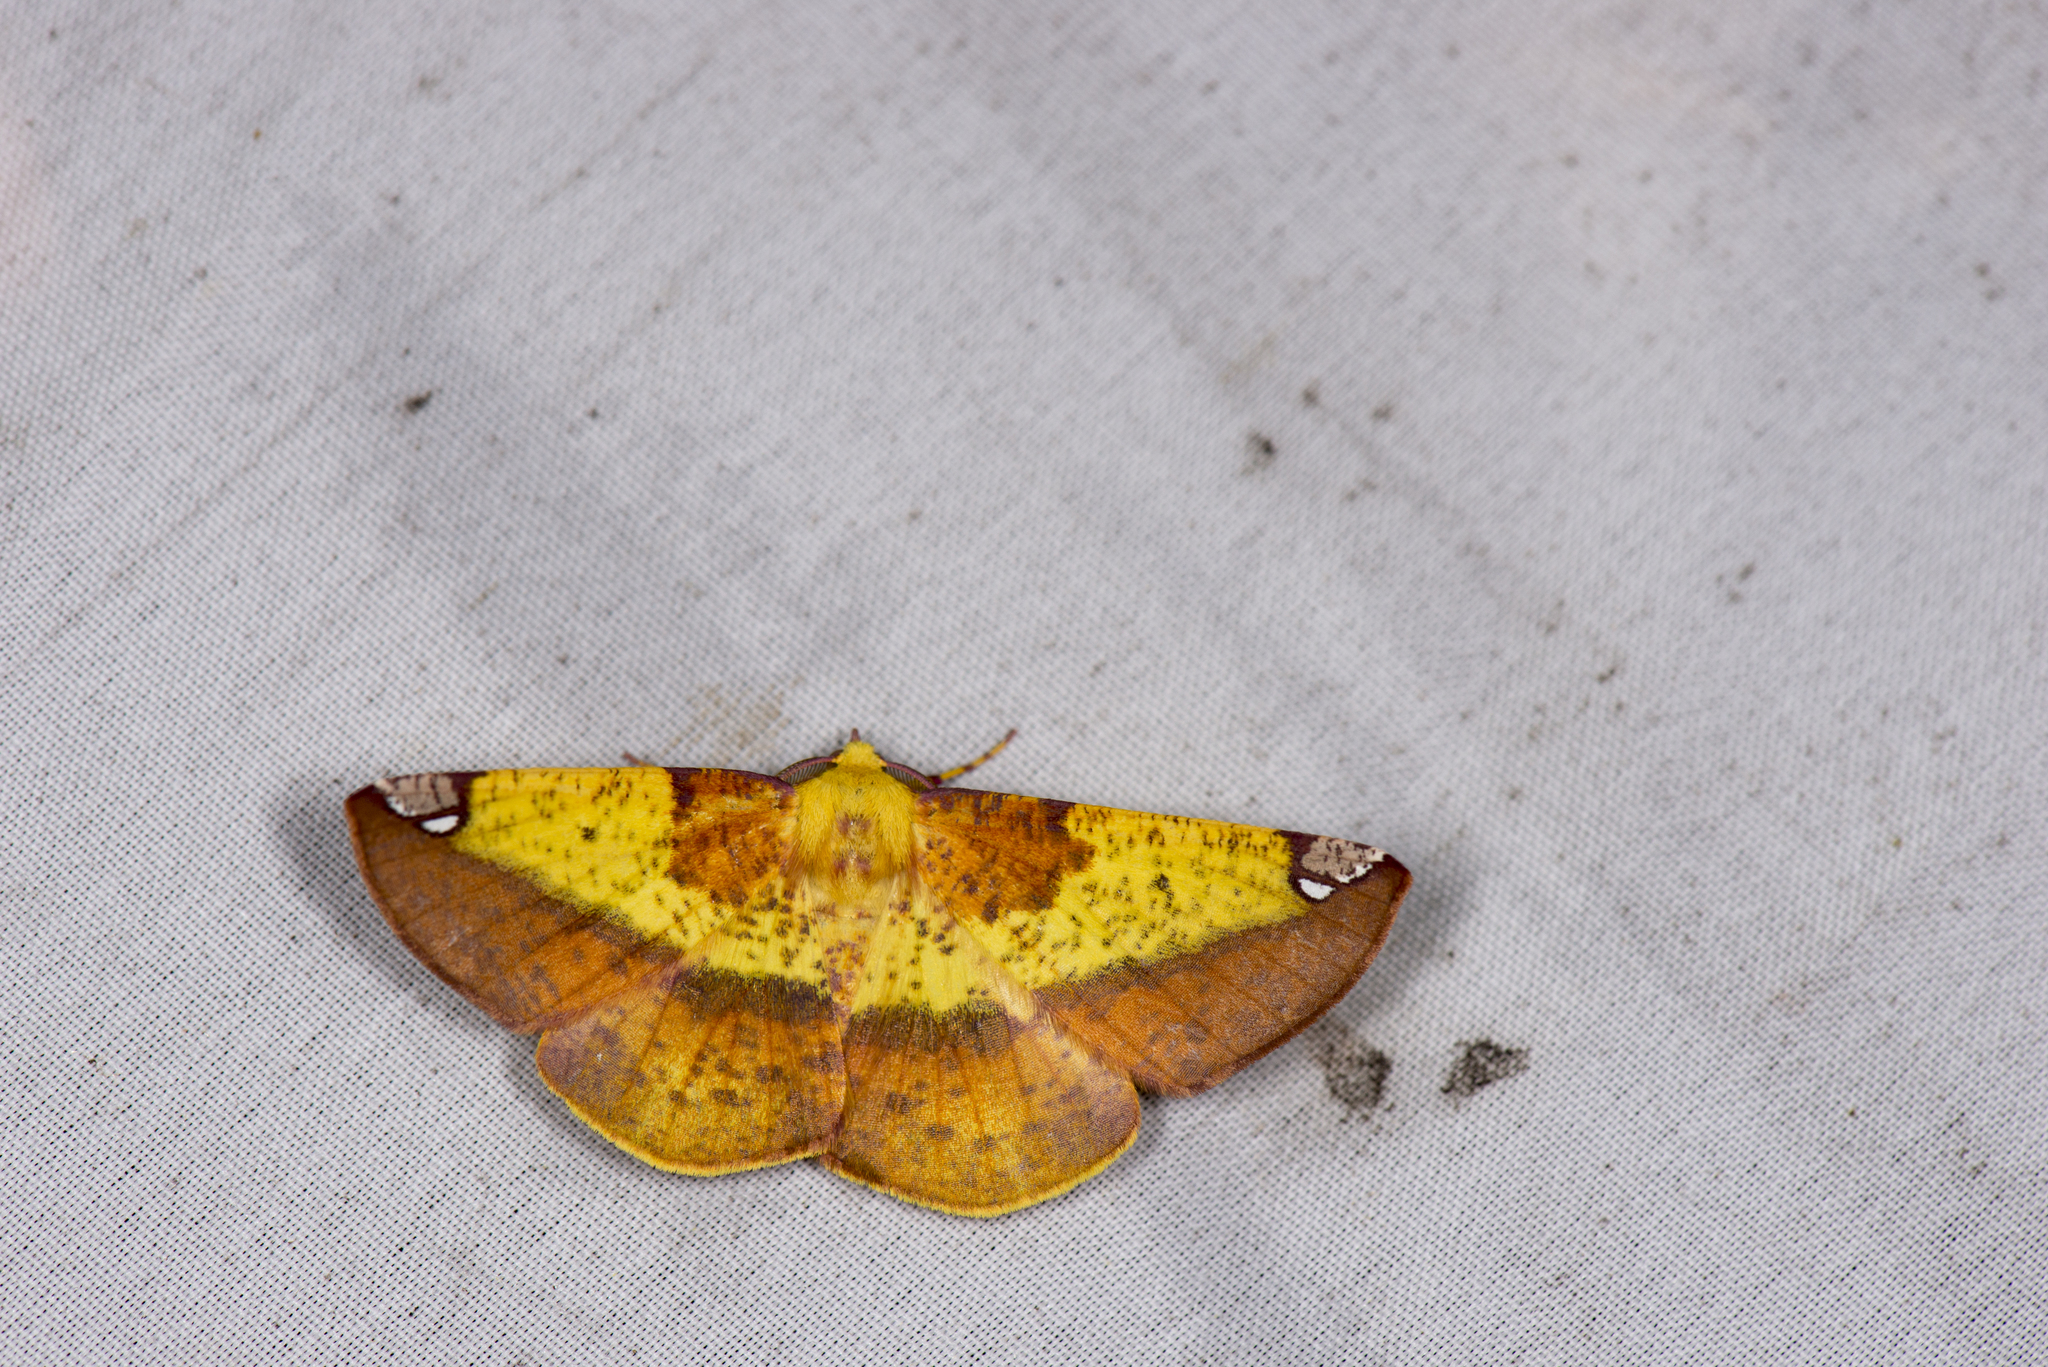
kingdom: Animalia
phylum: Arthropoda
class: Insecta
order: Lepidoptera
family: Geometridae
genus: Pseudomiza
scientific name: Pseudomiza aurata
